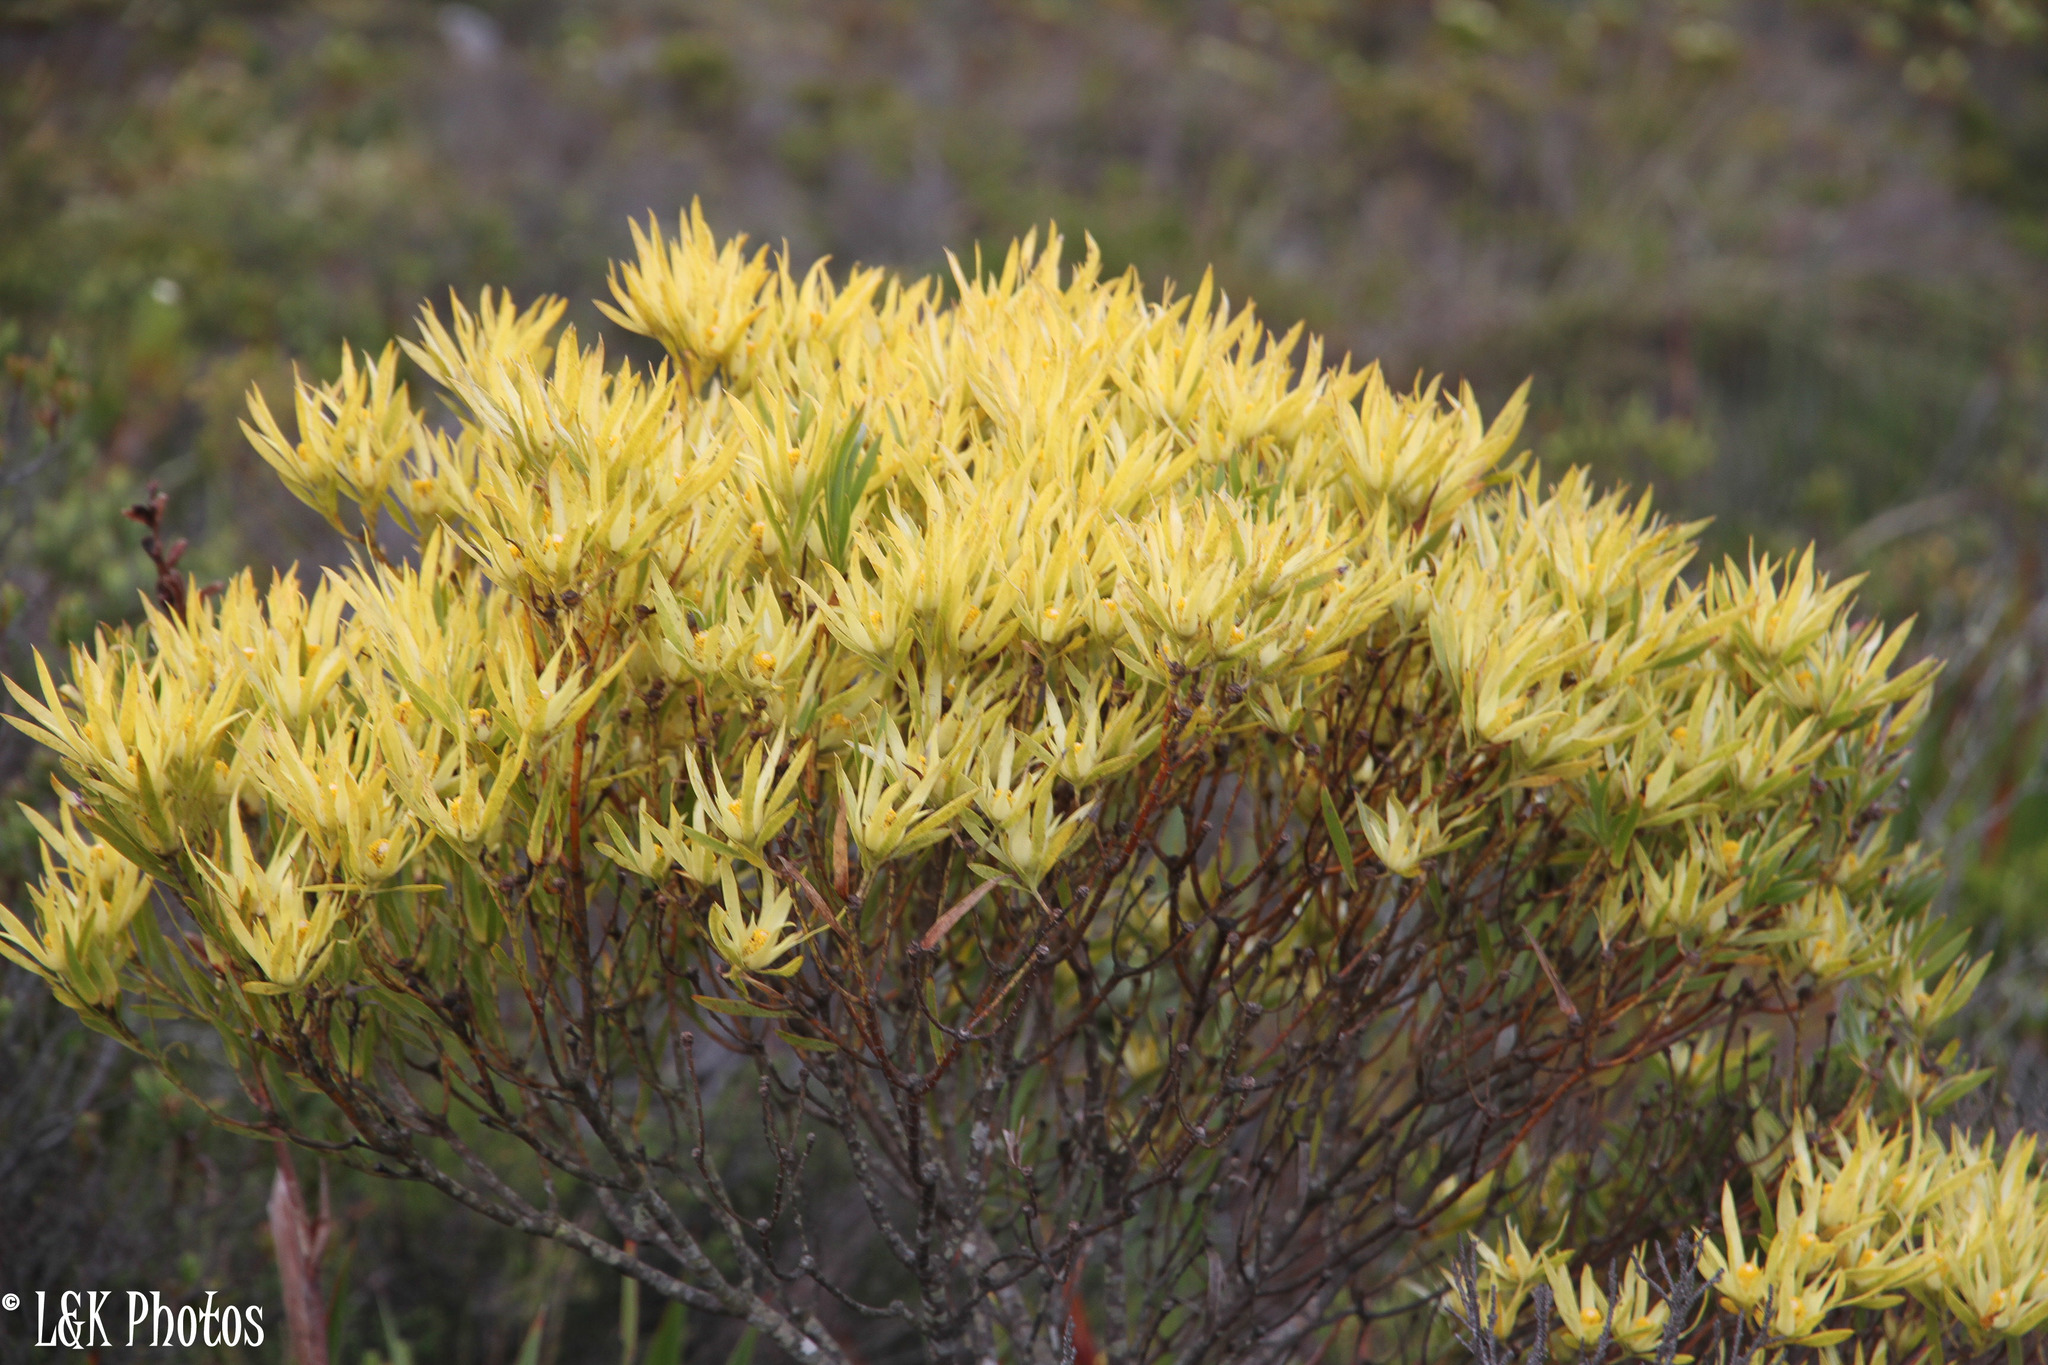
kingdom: Plantae
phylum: Tracheophyta
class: Magnoliopsida
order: Proteales
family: Proteaceae
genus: Leucadendron
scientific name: Leucadendron xanthoconus
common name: Sickle-leaf conebush
